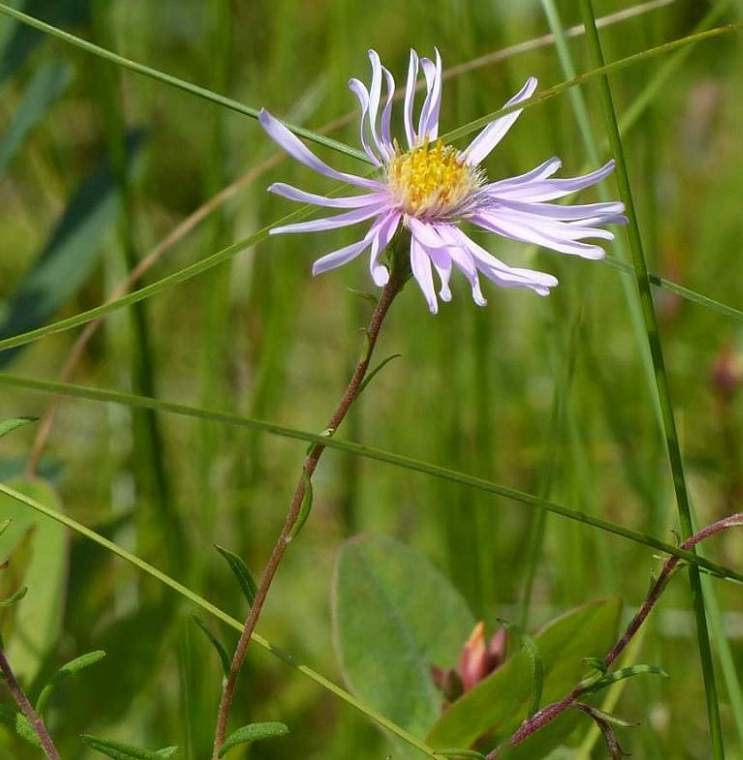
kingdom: Plantae
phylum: Tracheophyta
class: Magnoliopsida
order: Asterales
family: Asteraceae
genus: Oclemena
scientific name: Oclemena nemoralis
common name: Bog aster
